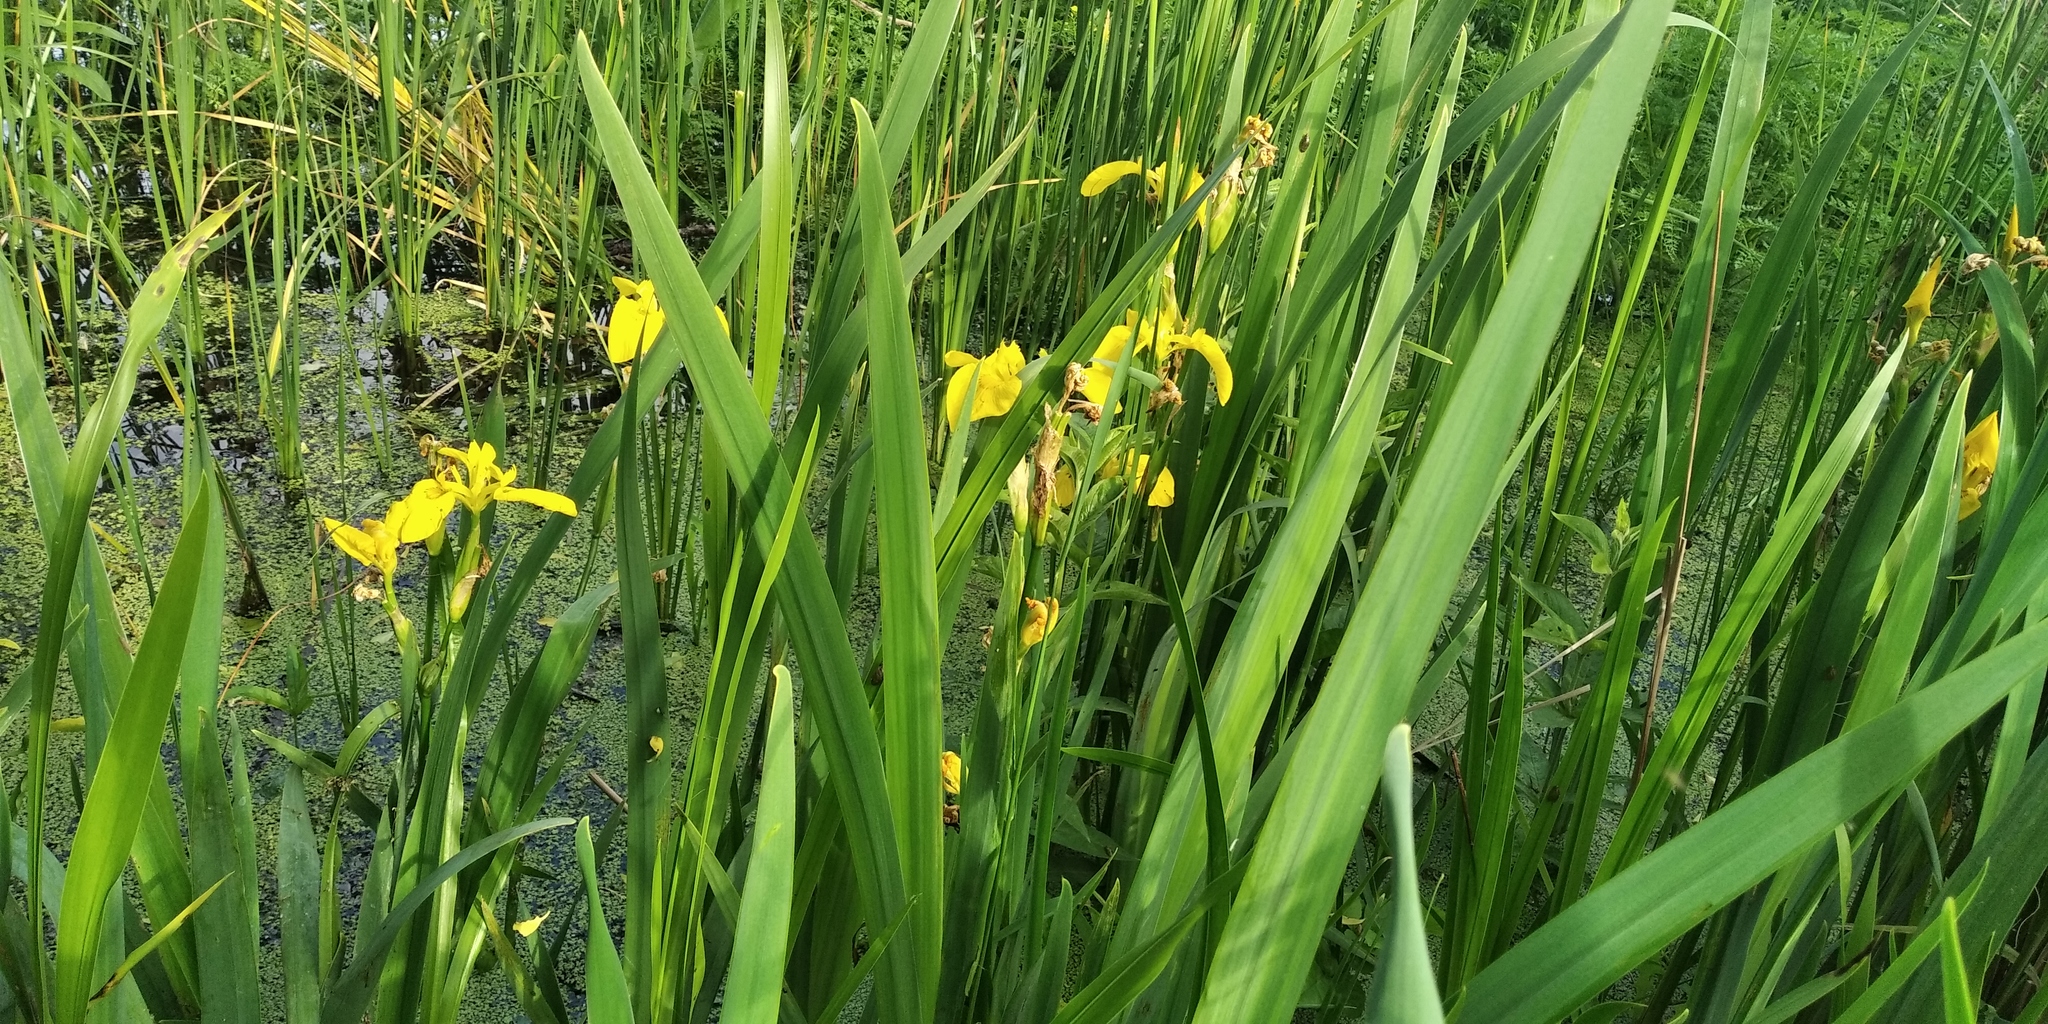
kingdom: Plantae
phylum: Tracheophyta
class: Liliopsida
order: Asparagales
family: Iridaceae
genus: Iris
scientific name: Iris pseudacorus
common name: Yellow flag
